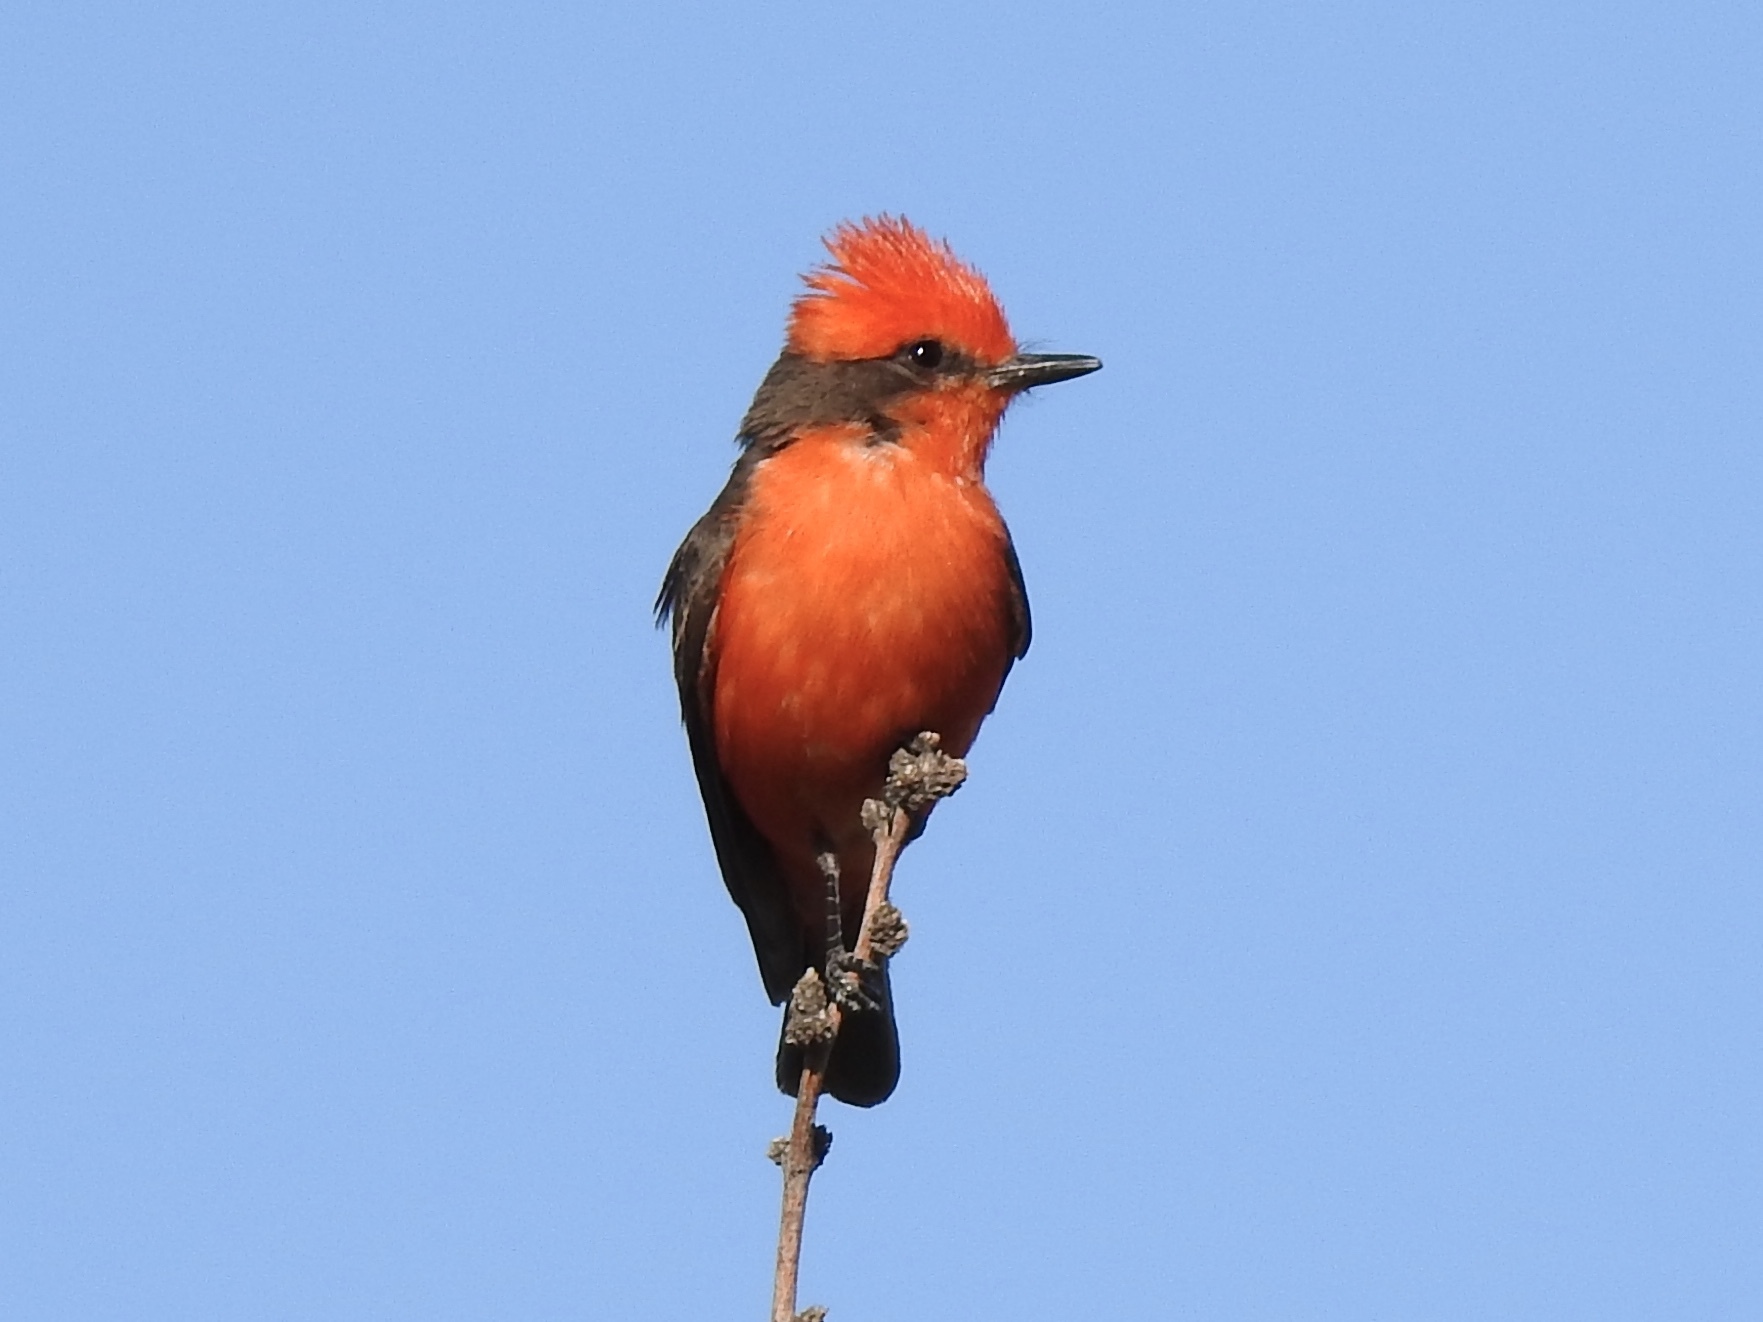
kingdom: Animalia
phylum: Chordata
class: Aves
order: Passeriformes
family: Tyrannidae
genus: Pyrocephalus
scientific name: Pyrocephalus rubinus
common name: Vermilion flycatcher
